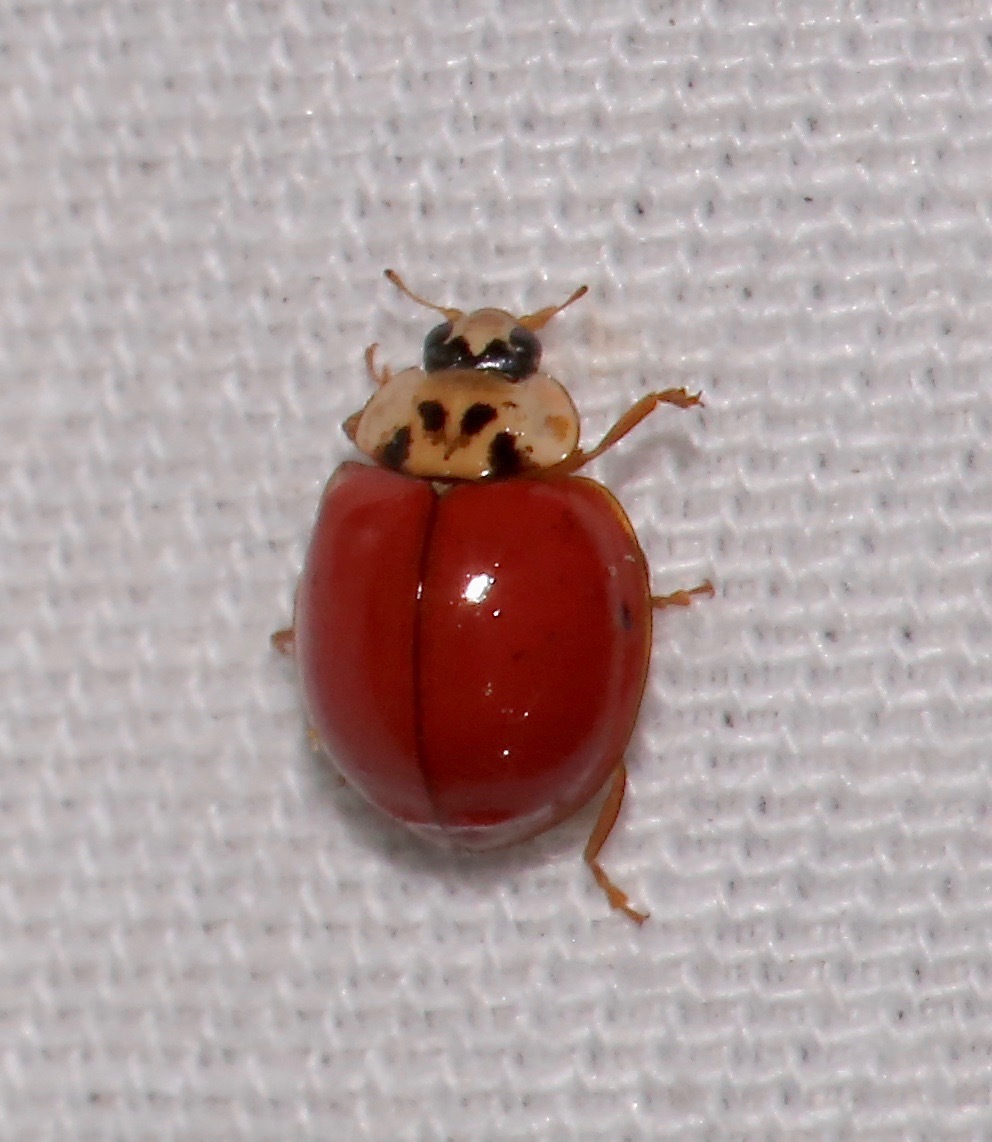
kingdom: Animalia
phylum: Arthropoda
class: Insecta
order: Coleoptera
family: Coccinellidae
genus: Harmonia
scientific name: Harmonia axyridis
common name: Harlequin ladybird
